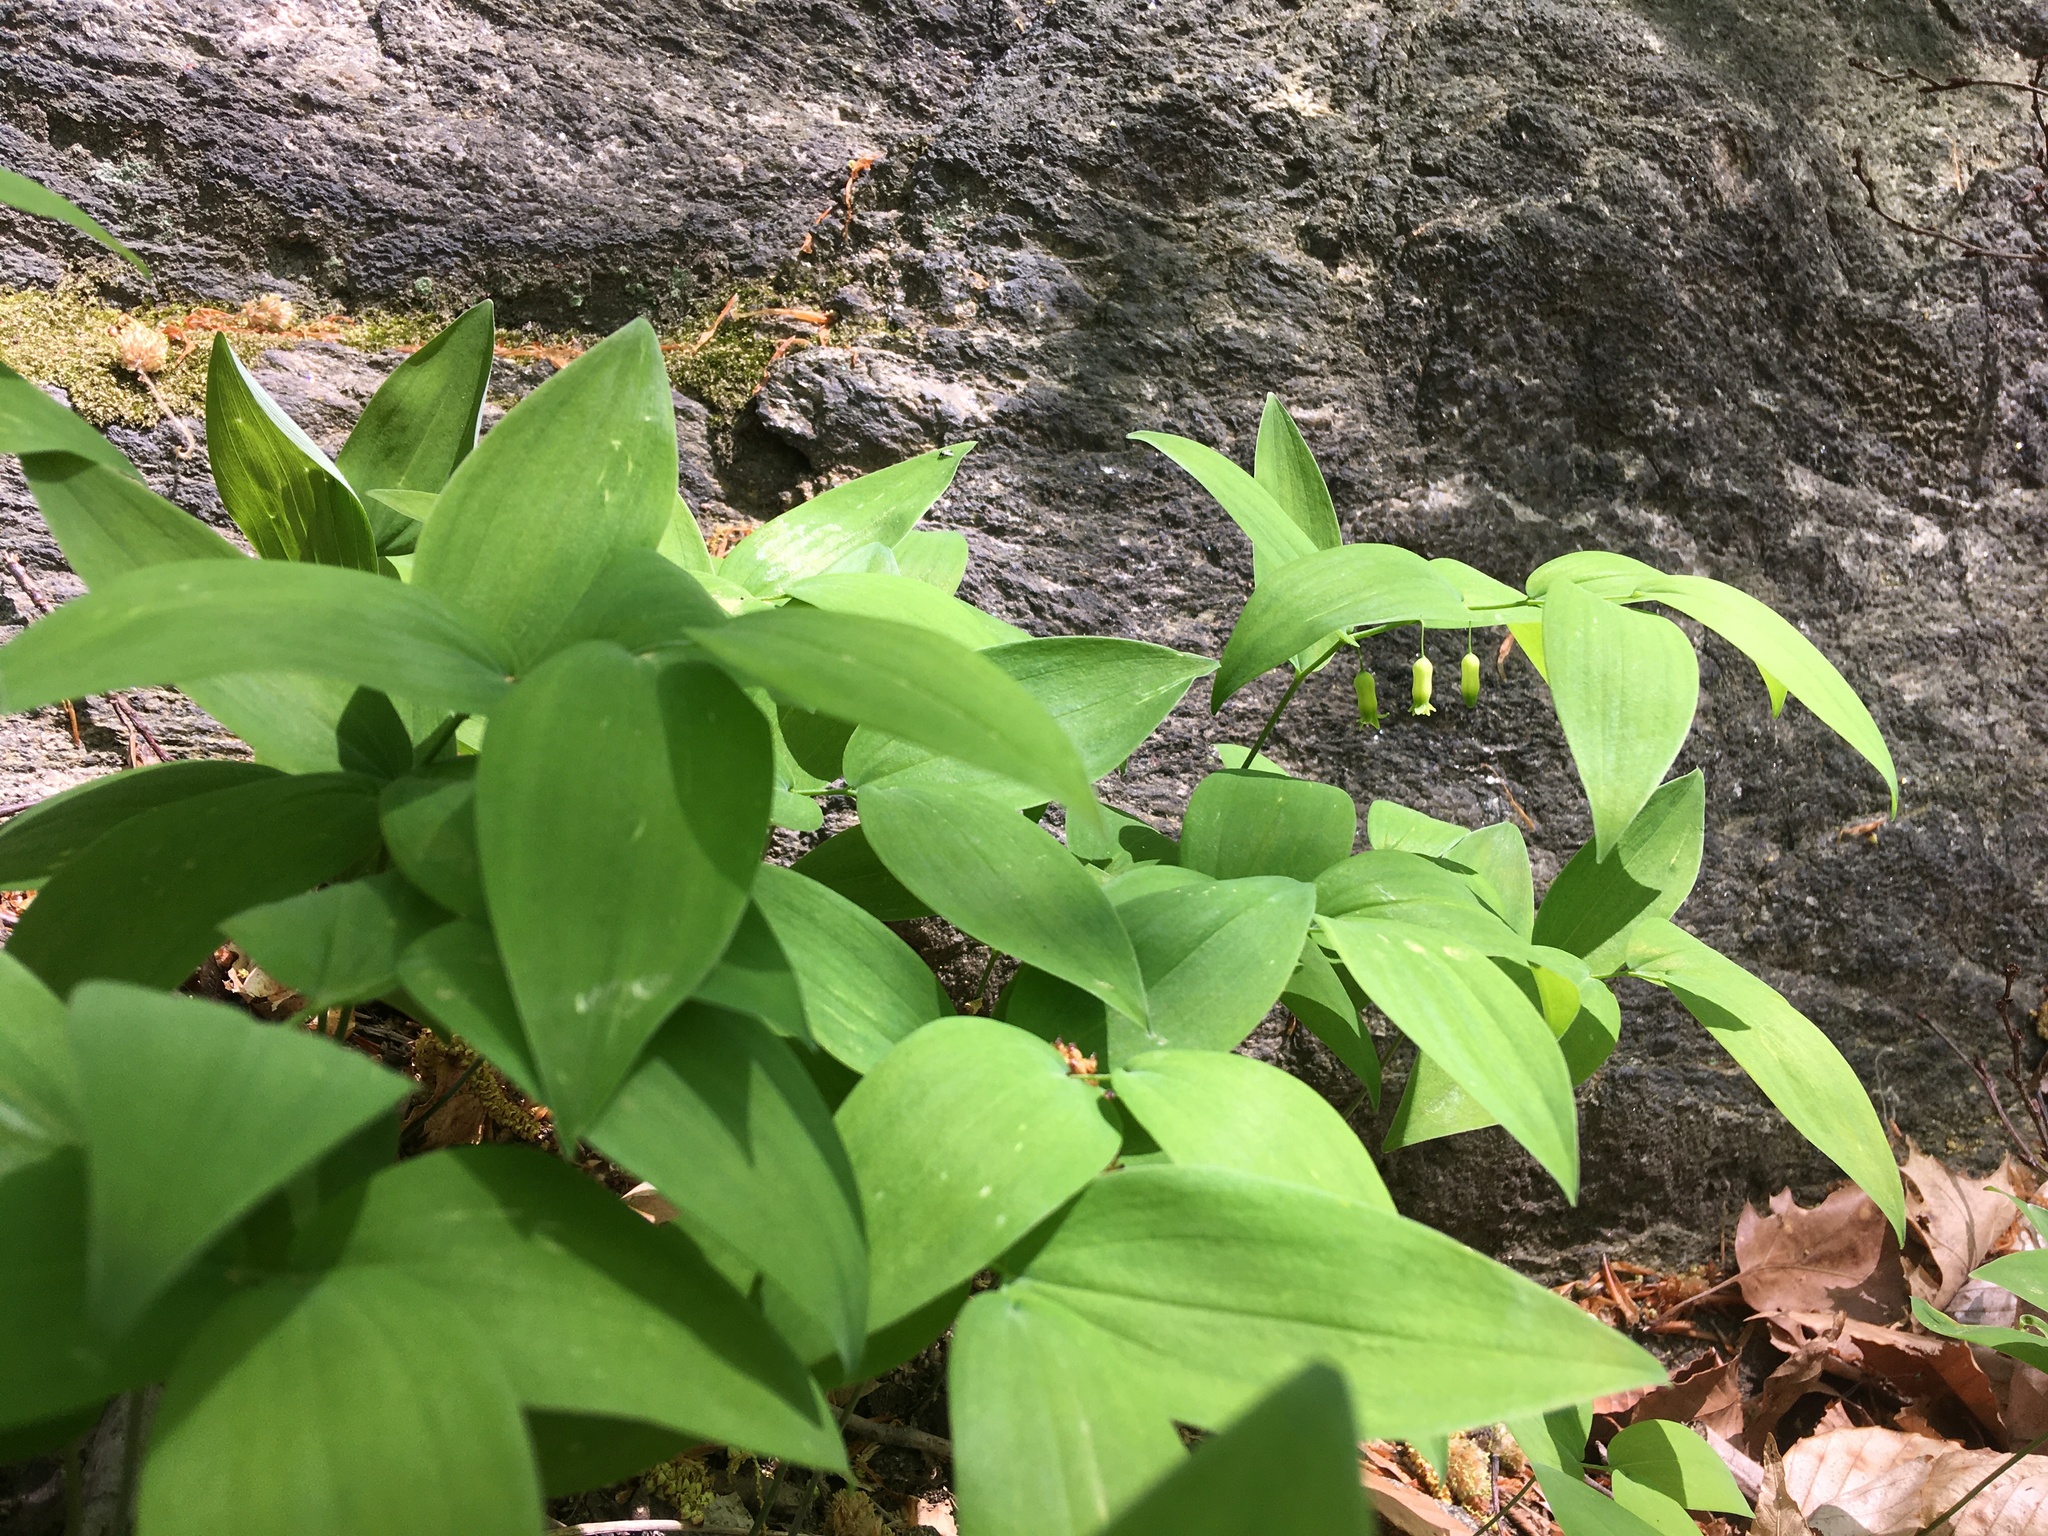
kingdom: Plantae
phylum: Tracheophyta
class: Liliopsida
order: Asparagales
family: Asparagaceae
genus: Polygonatum
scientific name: Polygonatum pubescens
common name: Downy solomon's seal
